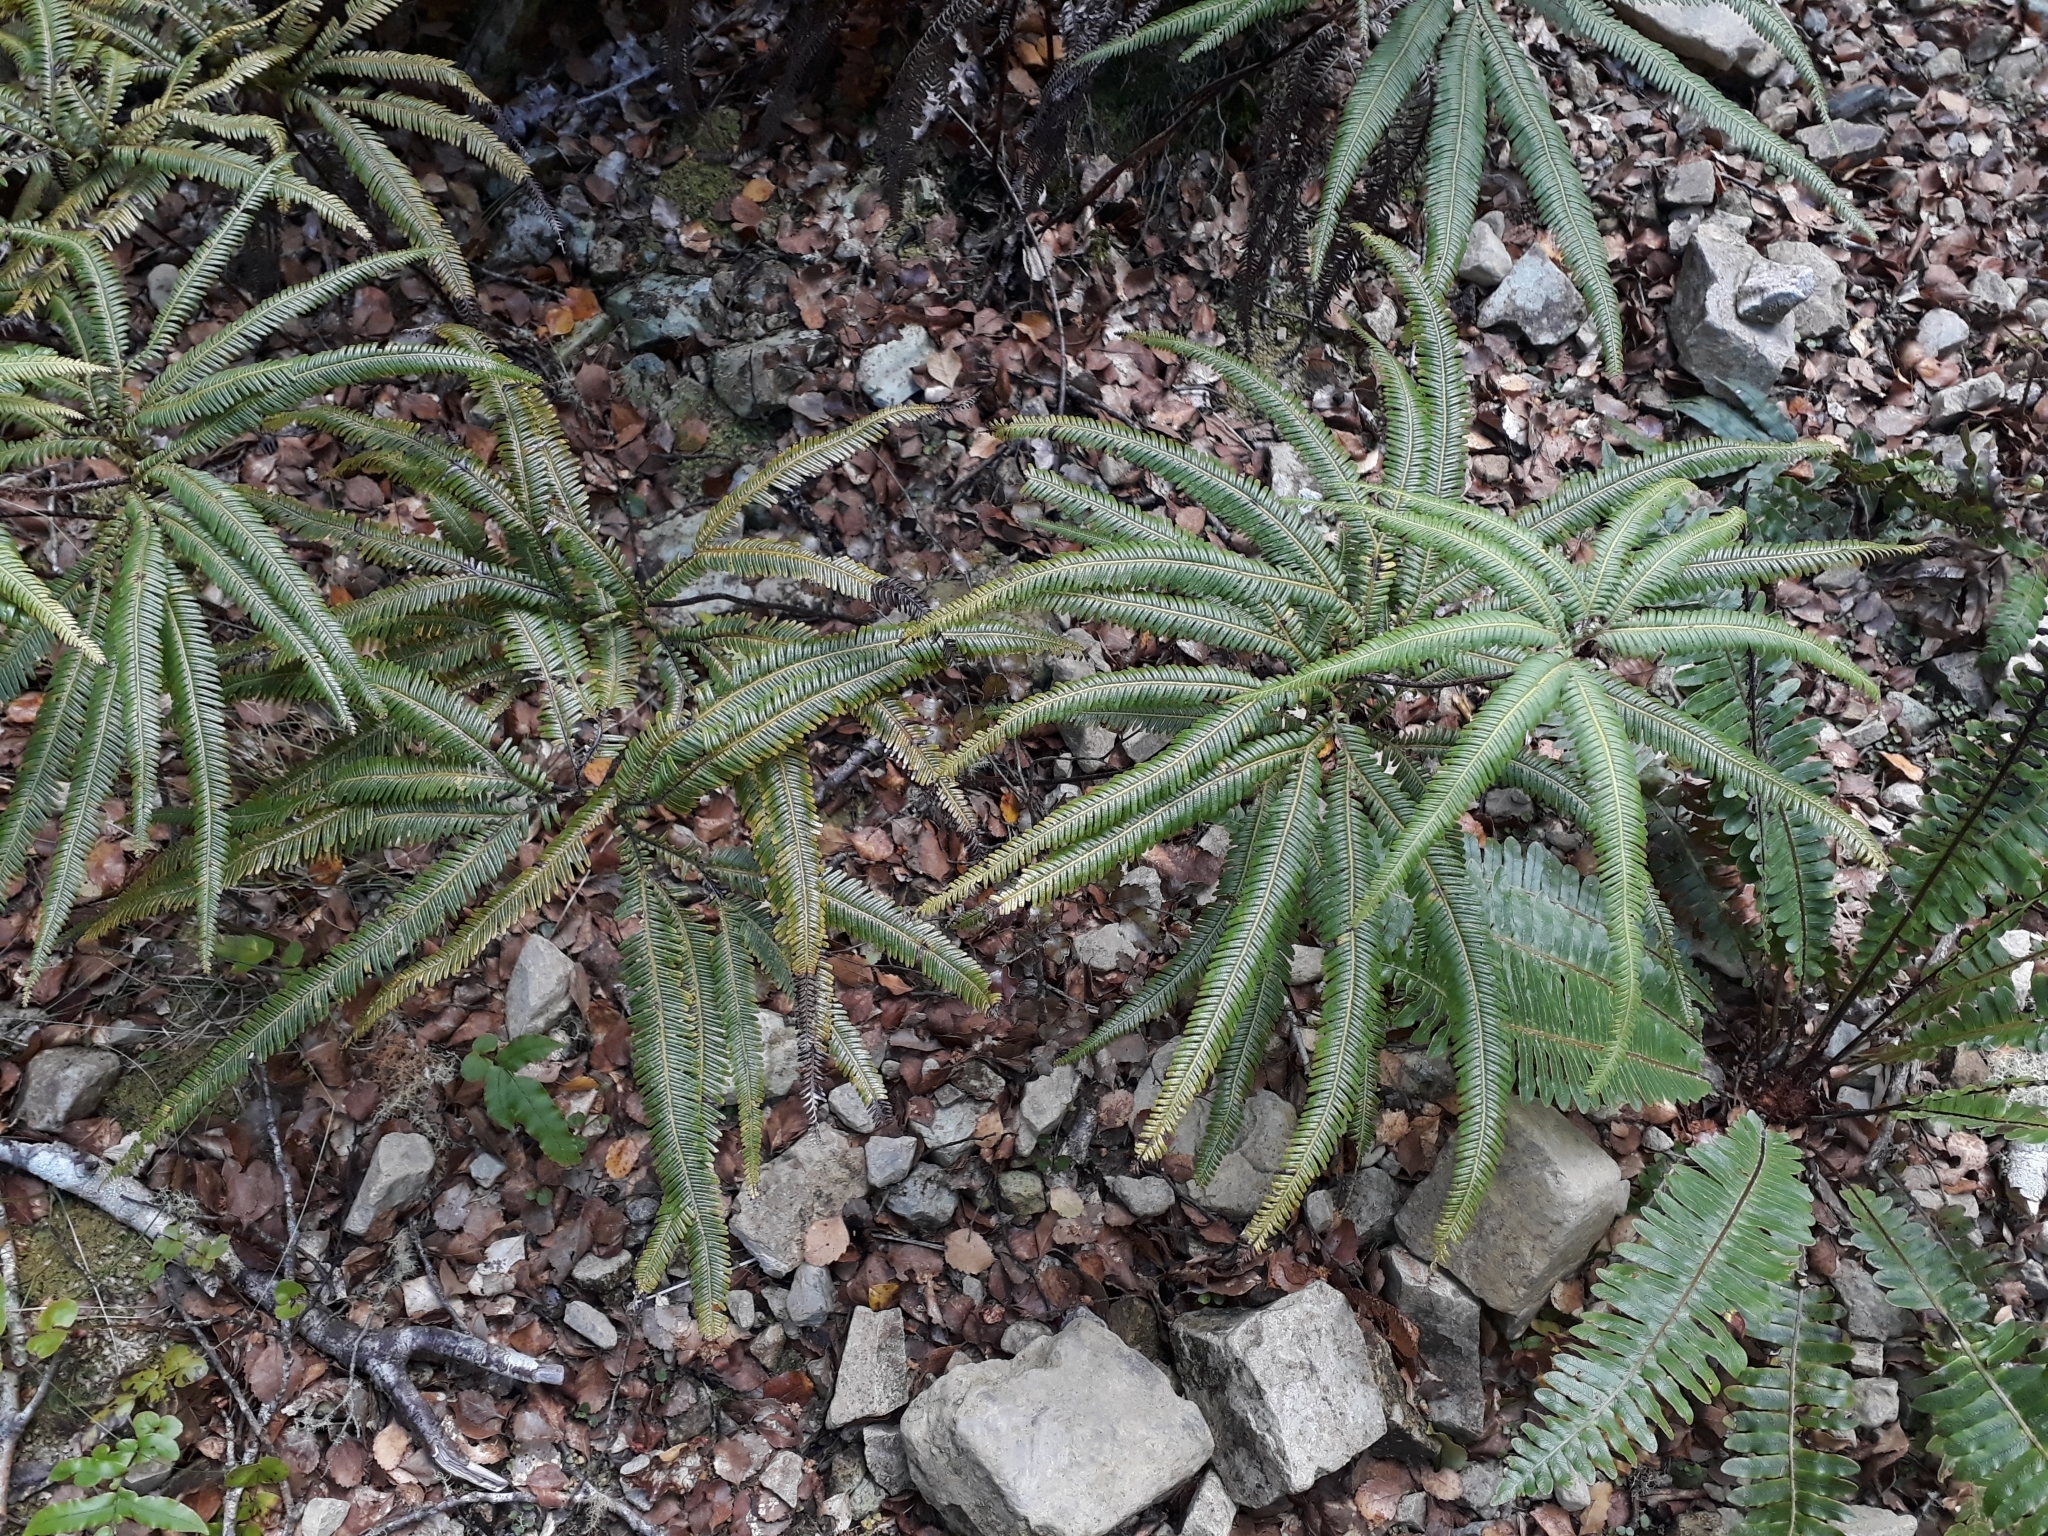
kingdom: Plantae
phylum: Tracheophyta
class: Polypodiopsida
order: Gleicheniales
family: Gleicheniaceae
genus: Sticherus
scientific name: Sticherus cunninghamii
